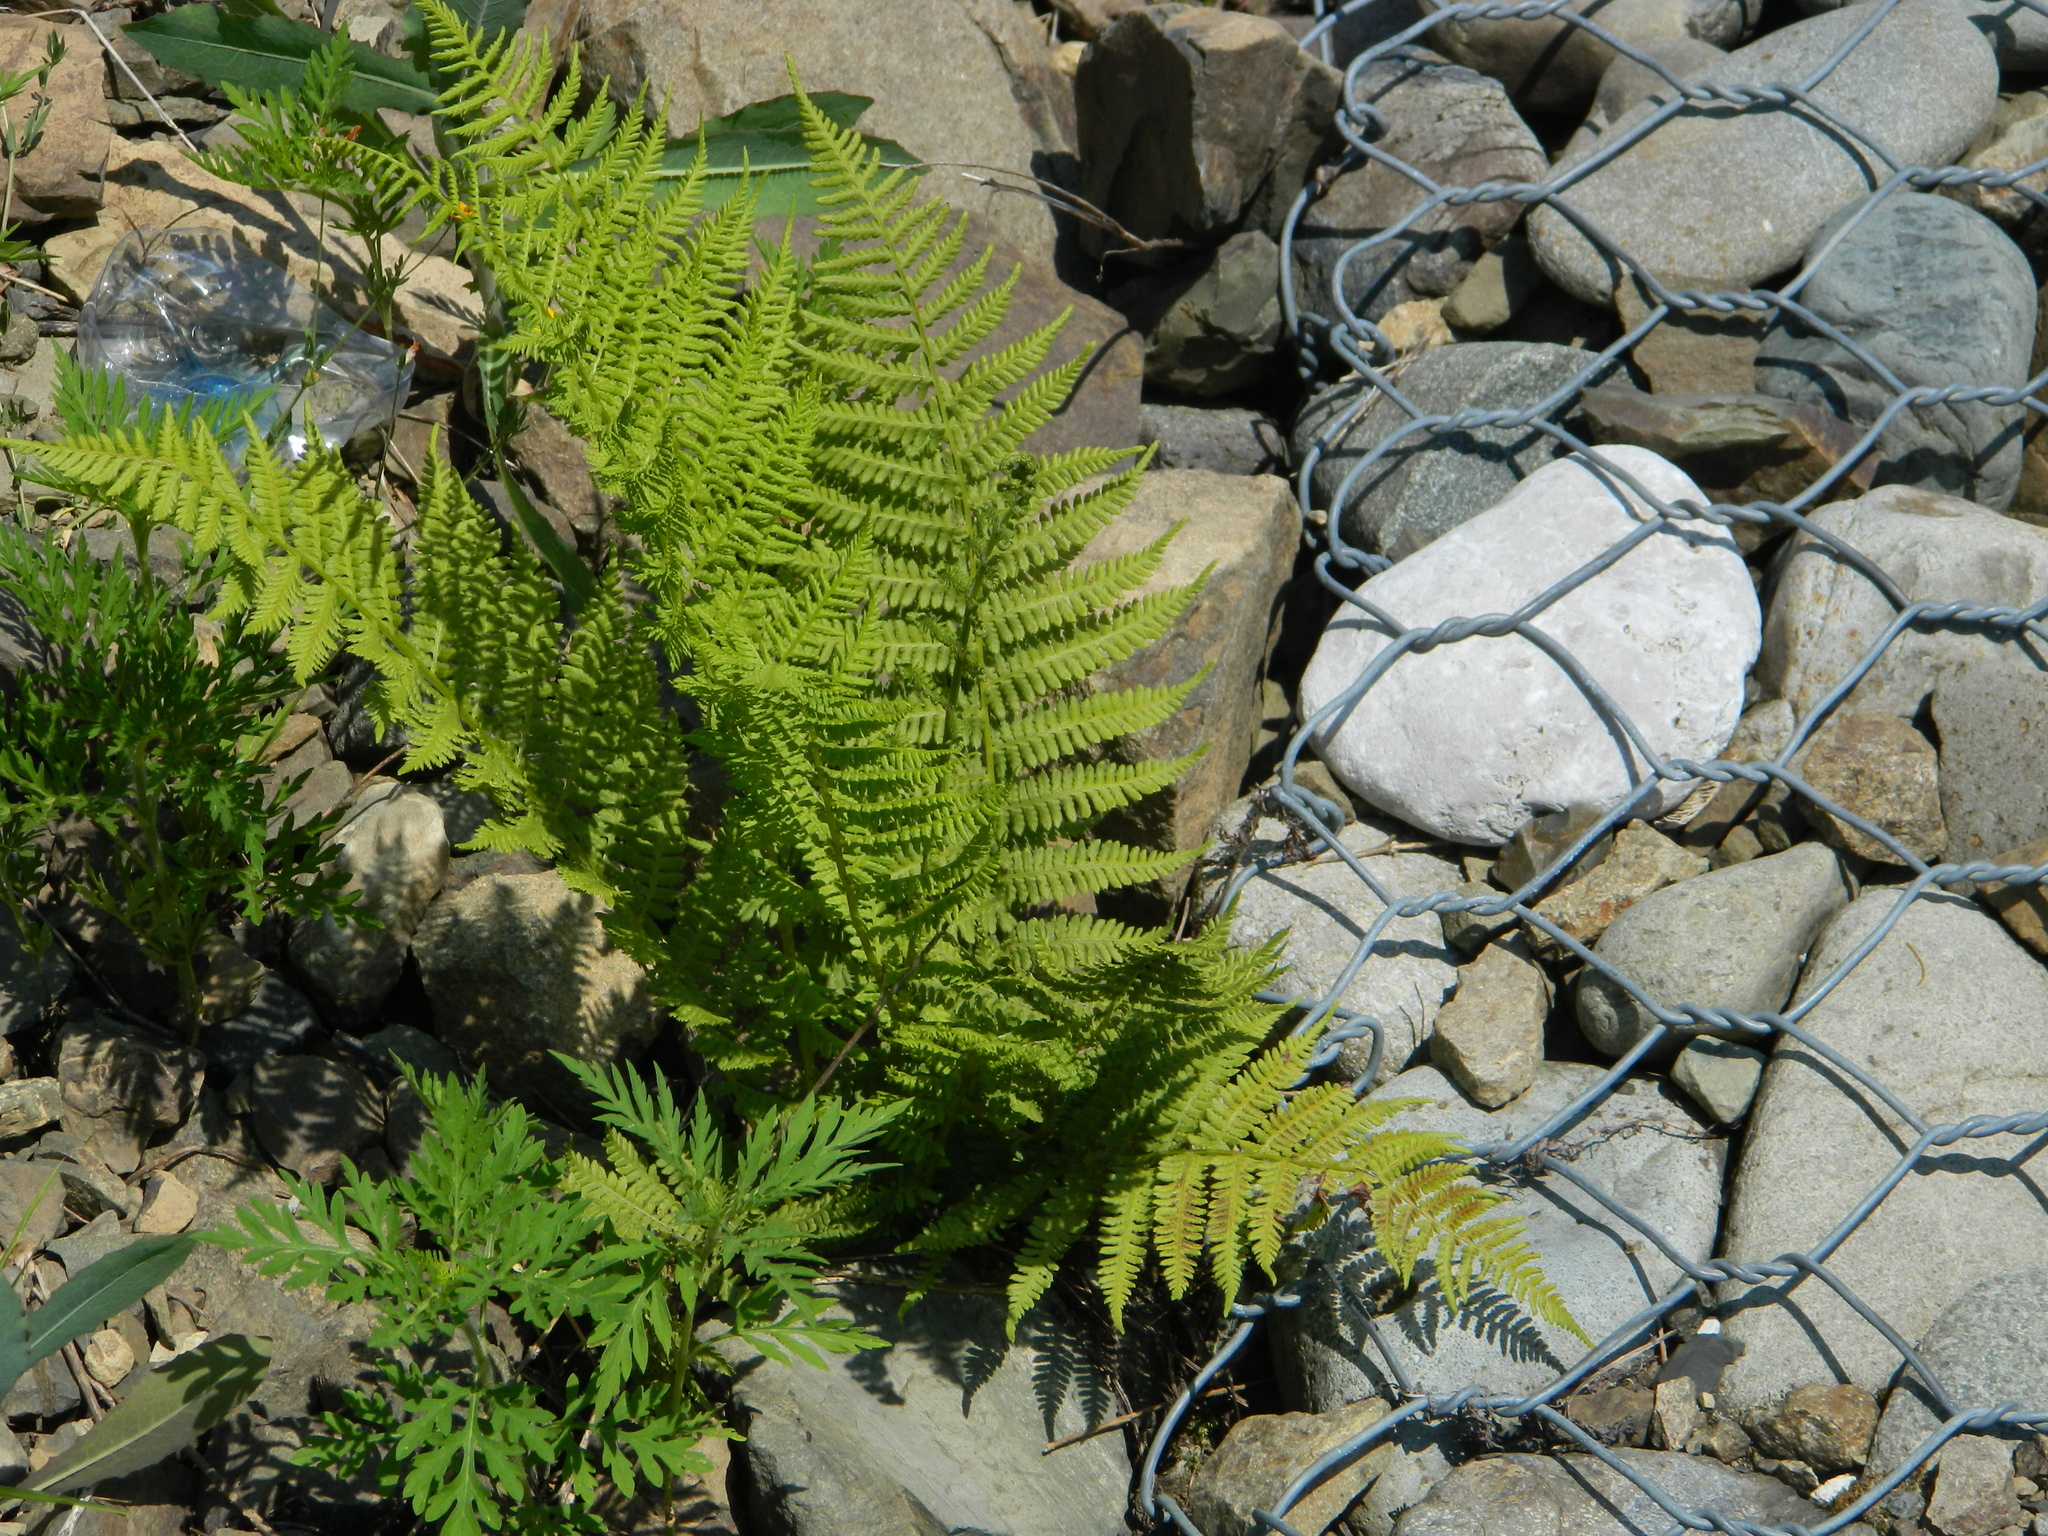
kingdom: Plantae
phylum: Tracheophyta
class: Polypodiopsida
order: Polypodiales
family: Athyriaceae
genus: Athyrium
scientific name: Athyrium filix-femina
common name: Lady fern
